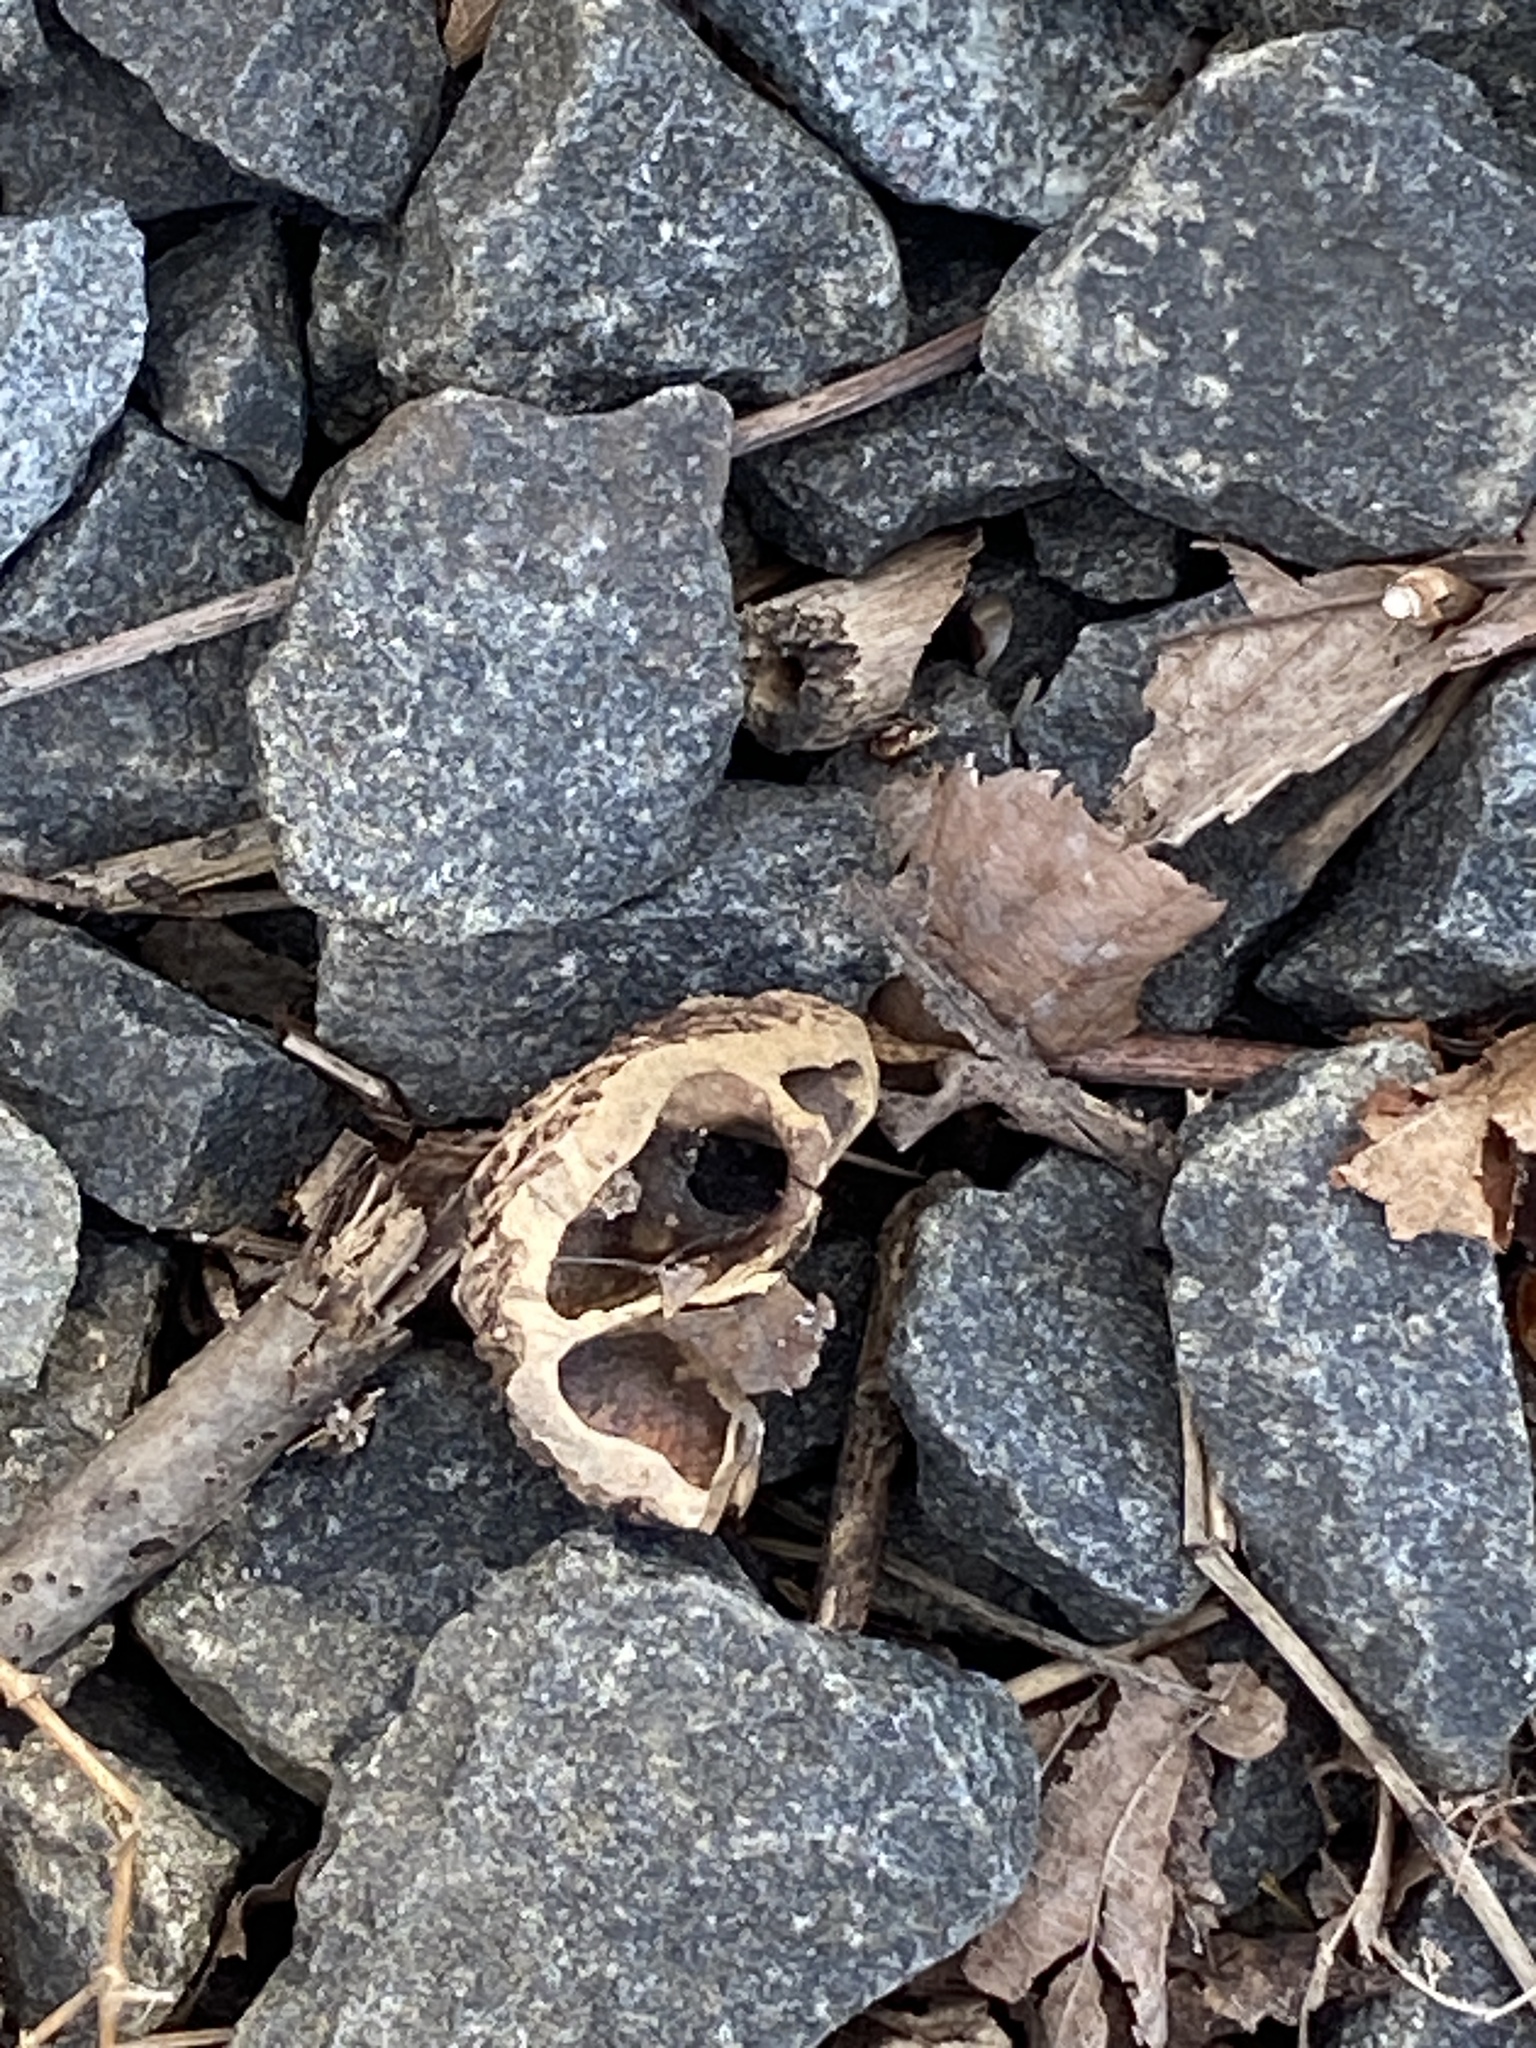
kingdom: Plantae
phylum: Tracheophyta
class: Magnoliopsida
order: Fagales
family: Juglandaceae
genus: Juglans
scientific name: Juglans nigra
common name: Black walnut
